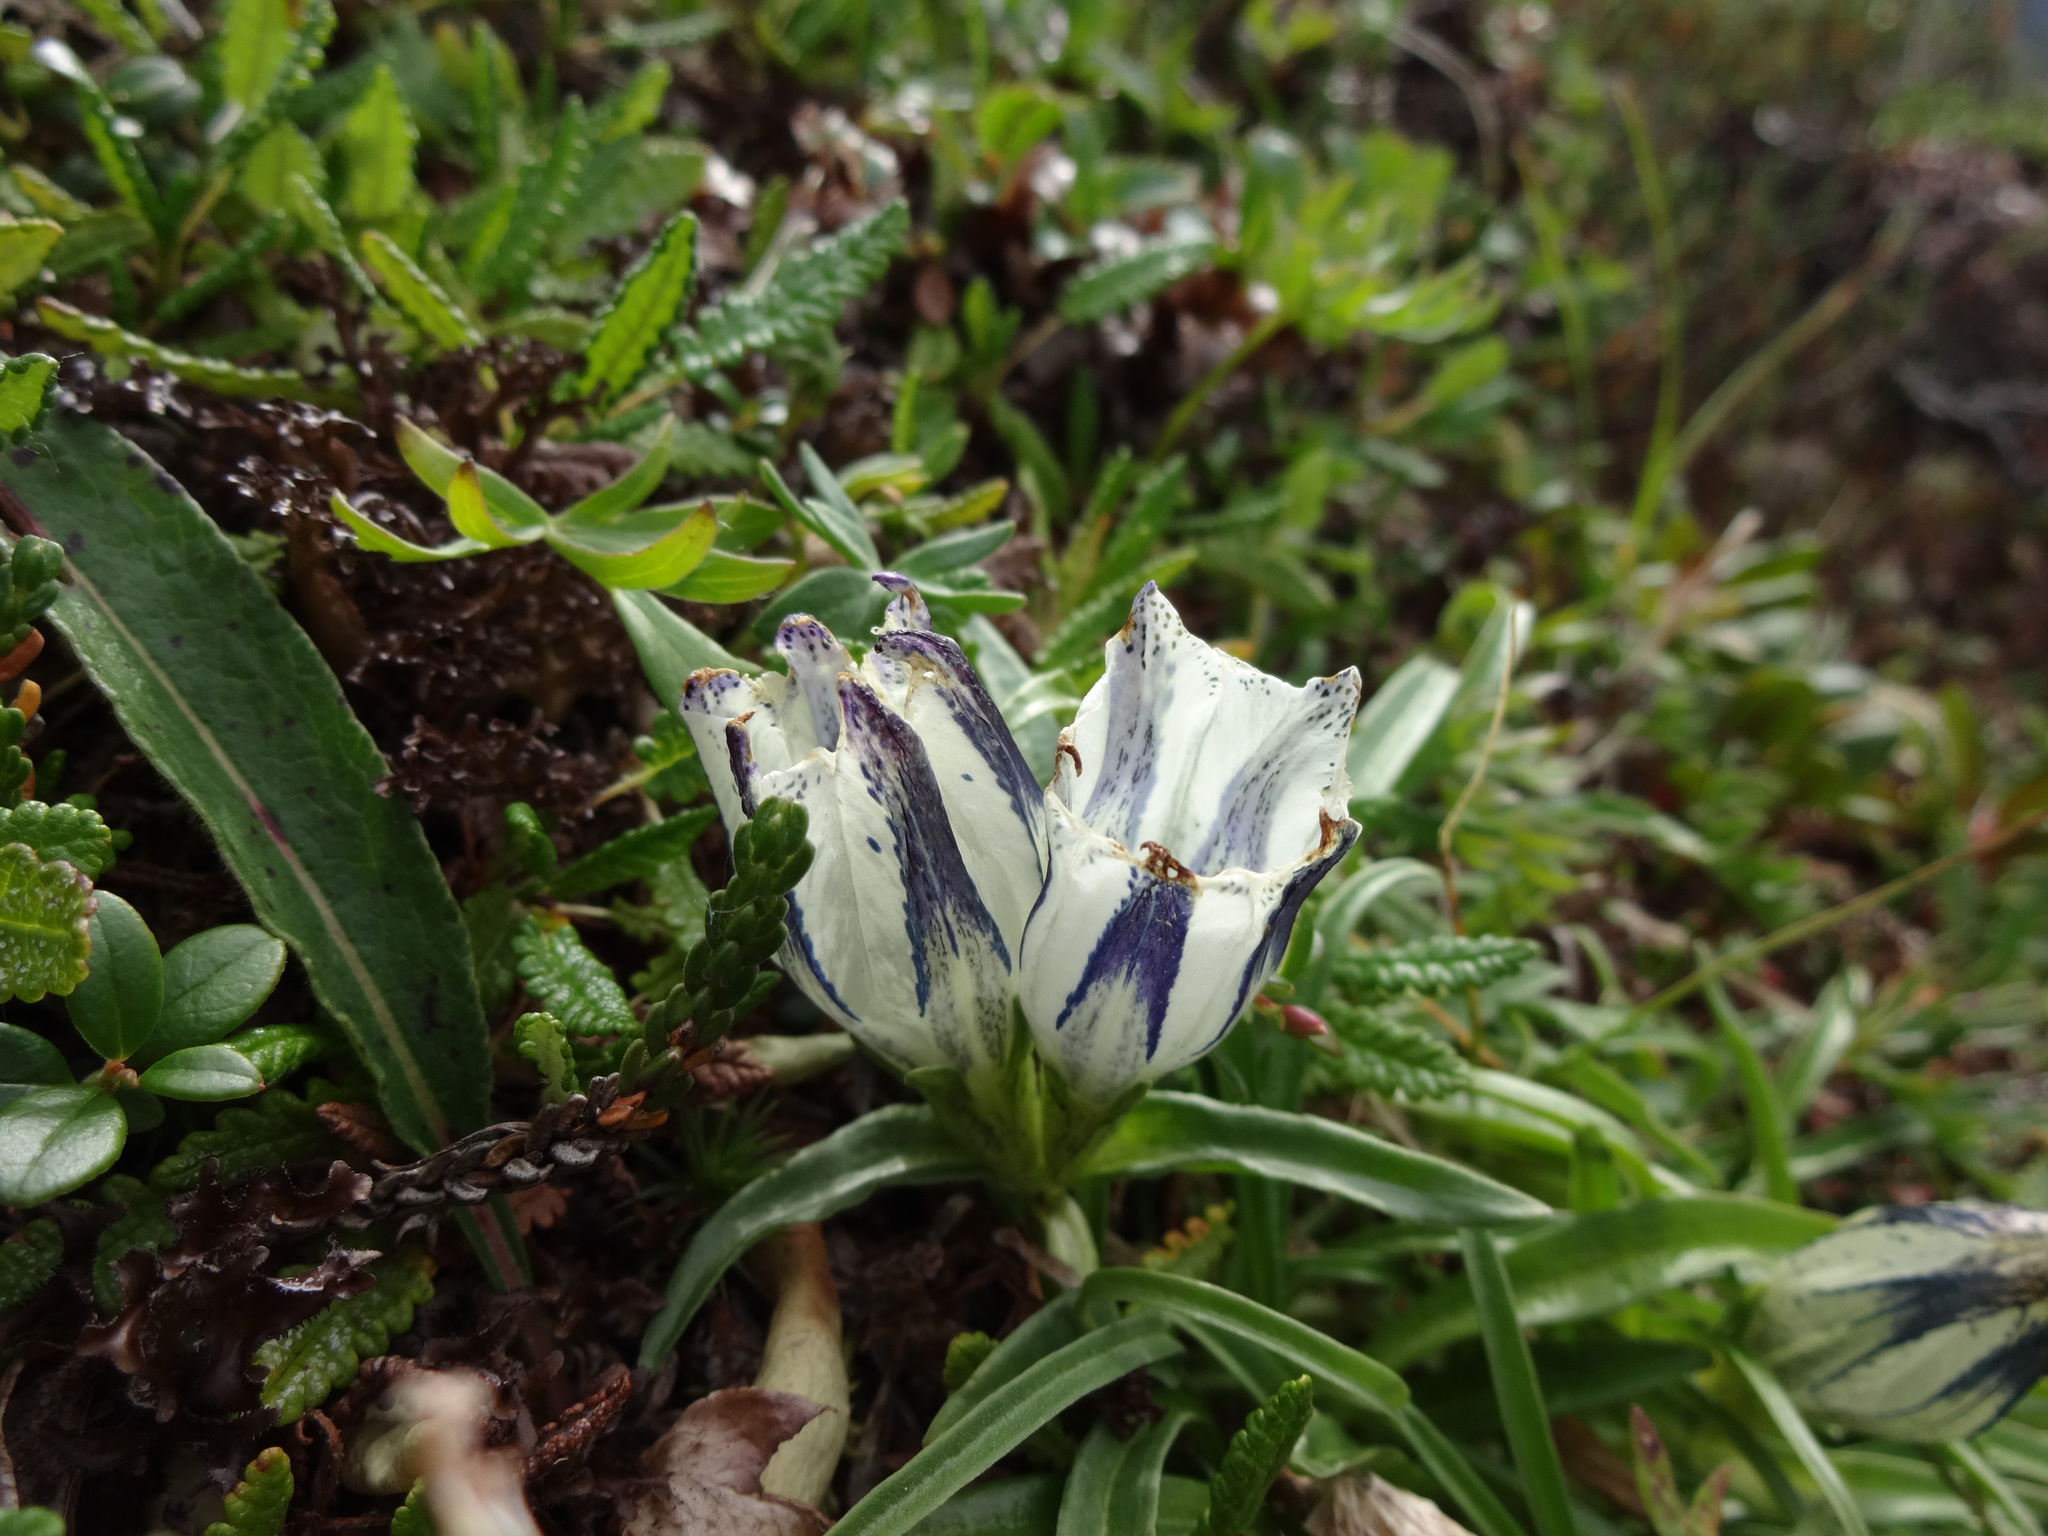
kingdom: Plantae
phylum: Tracheophyta
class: Magnoliopsida
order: Gentianales
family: Gentianaceae
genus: Gentiana
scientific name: Gentiana algida
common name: Arctic gentian
